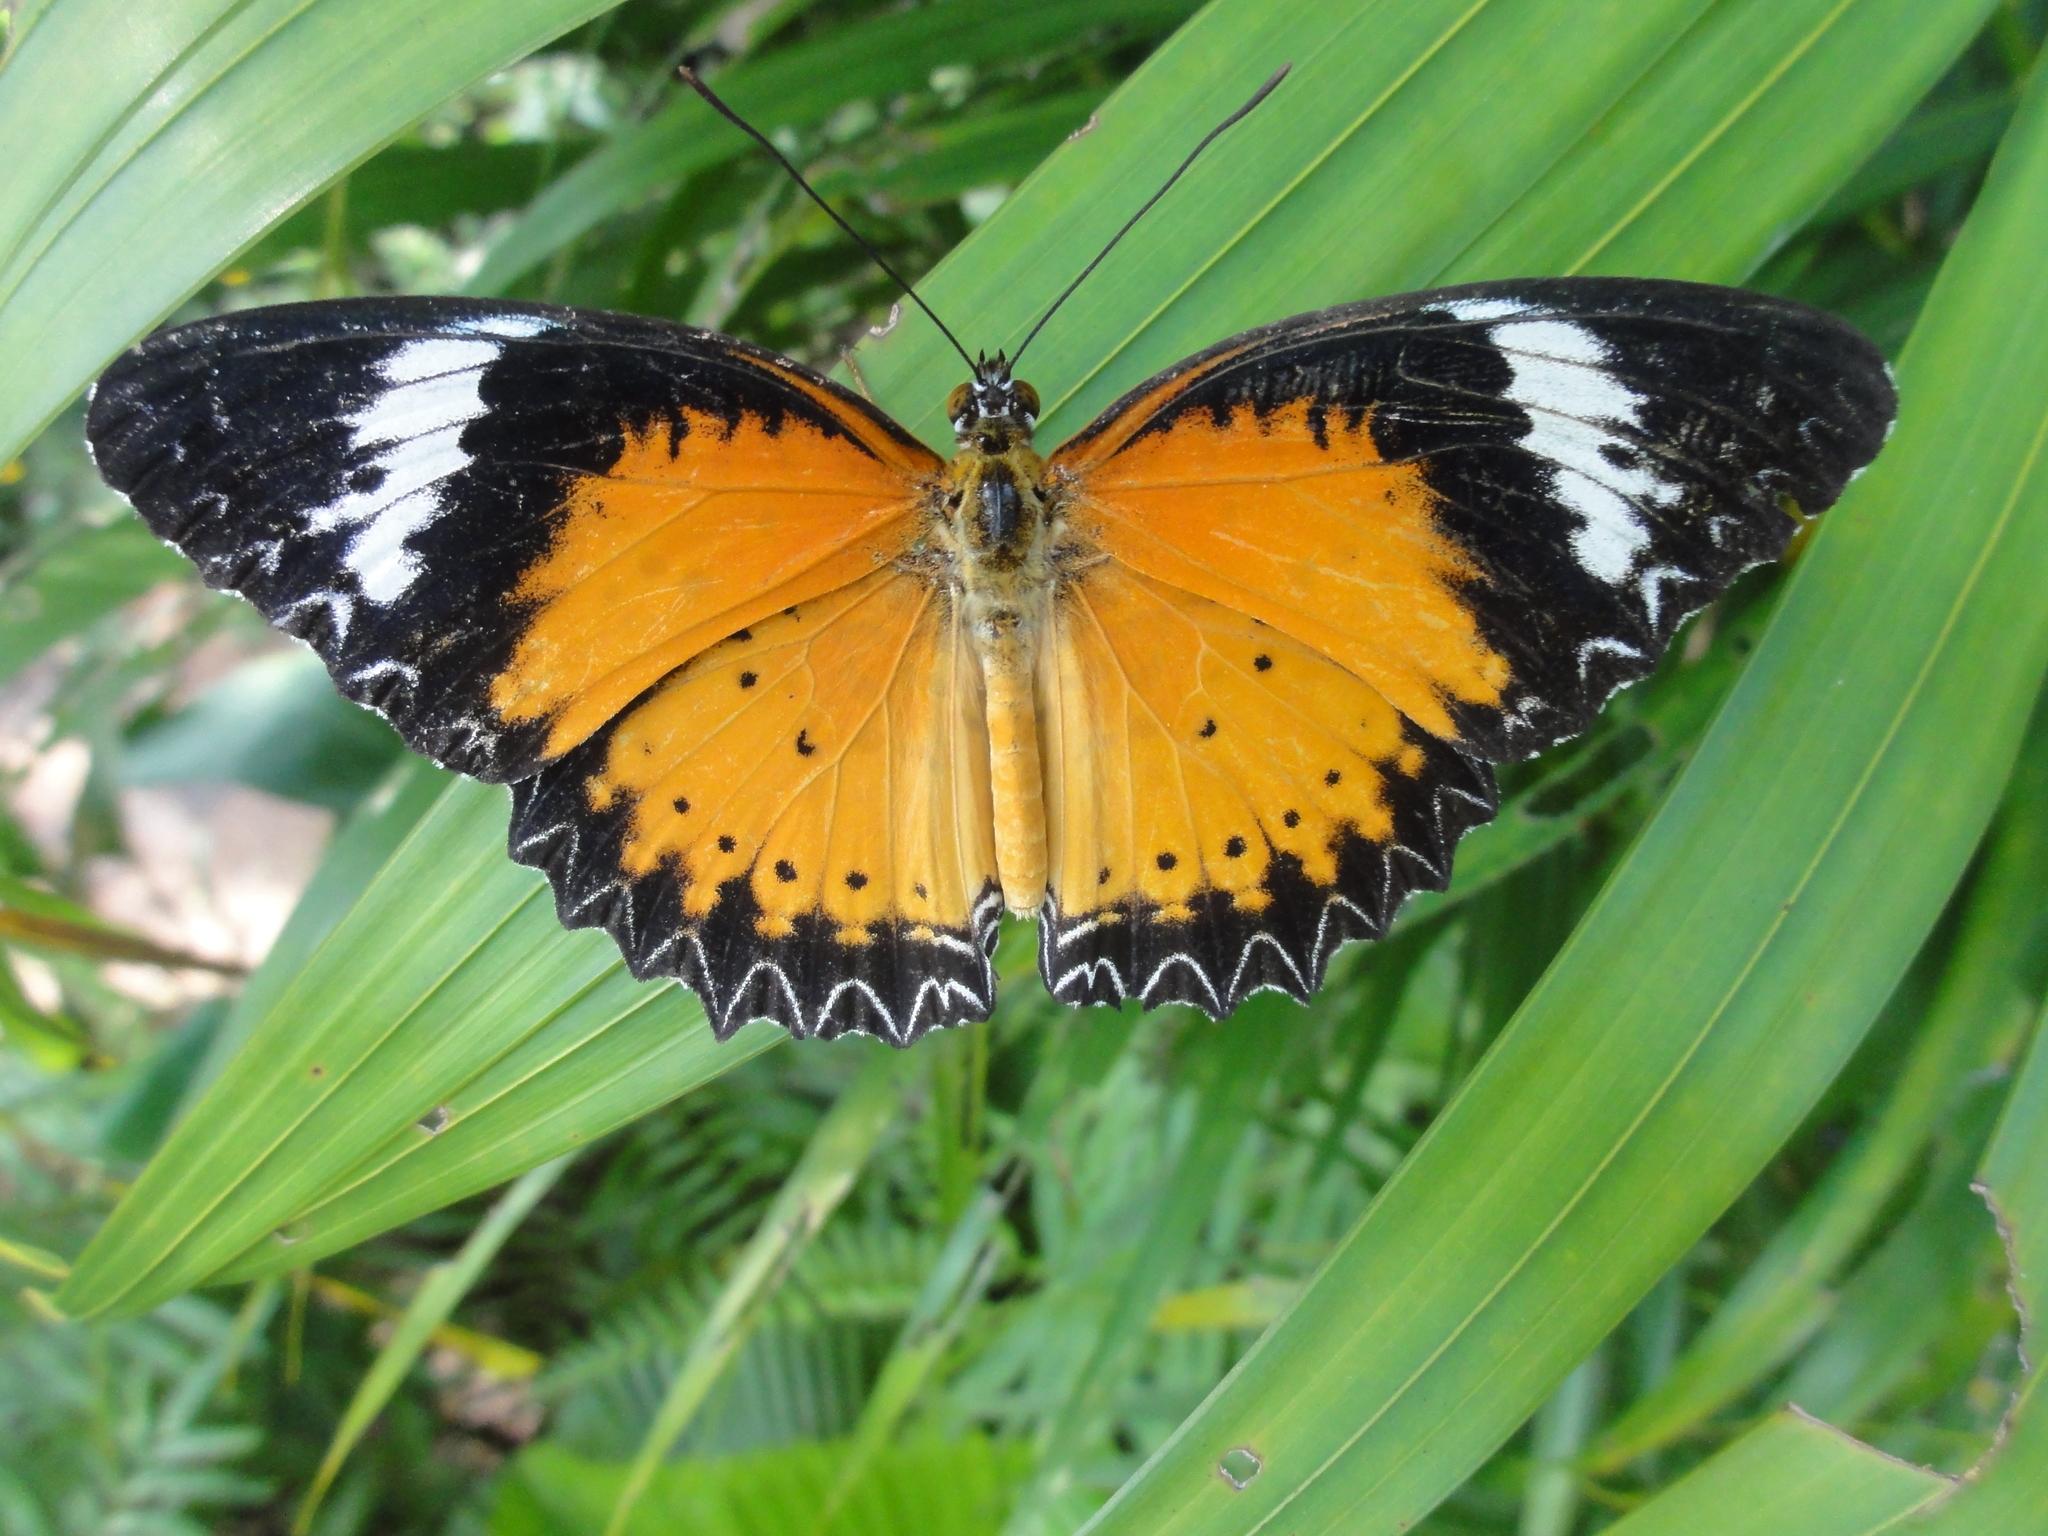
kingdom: Animalia
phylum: Arthropoda
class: Insecta
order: Lepidoptera
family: Nymphalidae
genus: Cethosia
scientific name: Cethosia cyane
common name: Leopard lacewing butterfly
